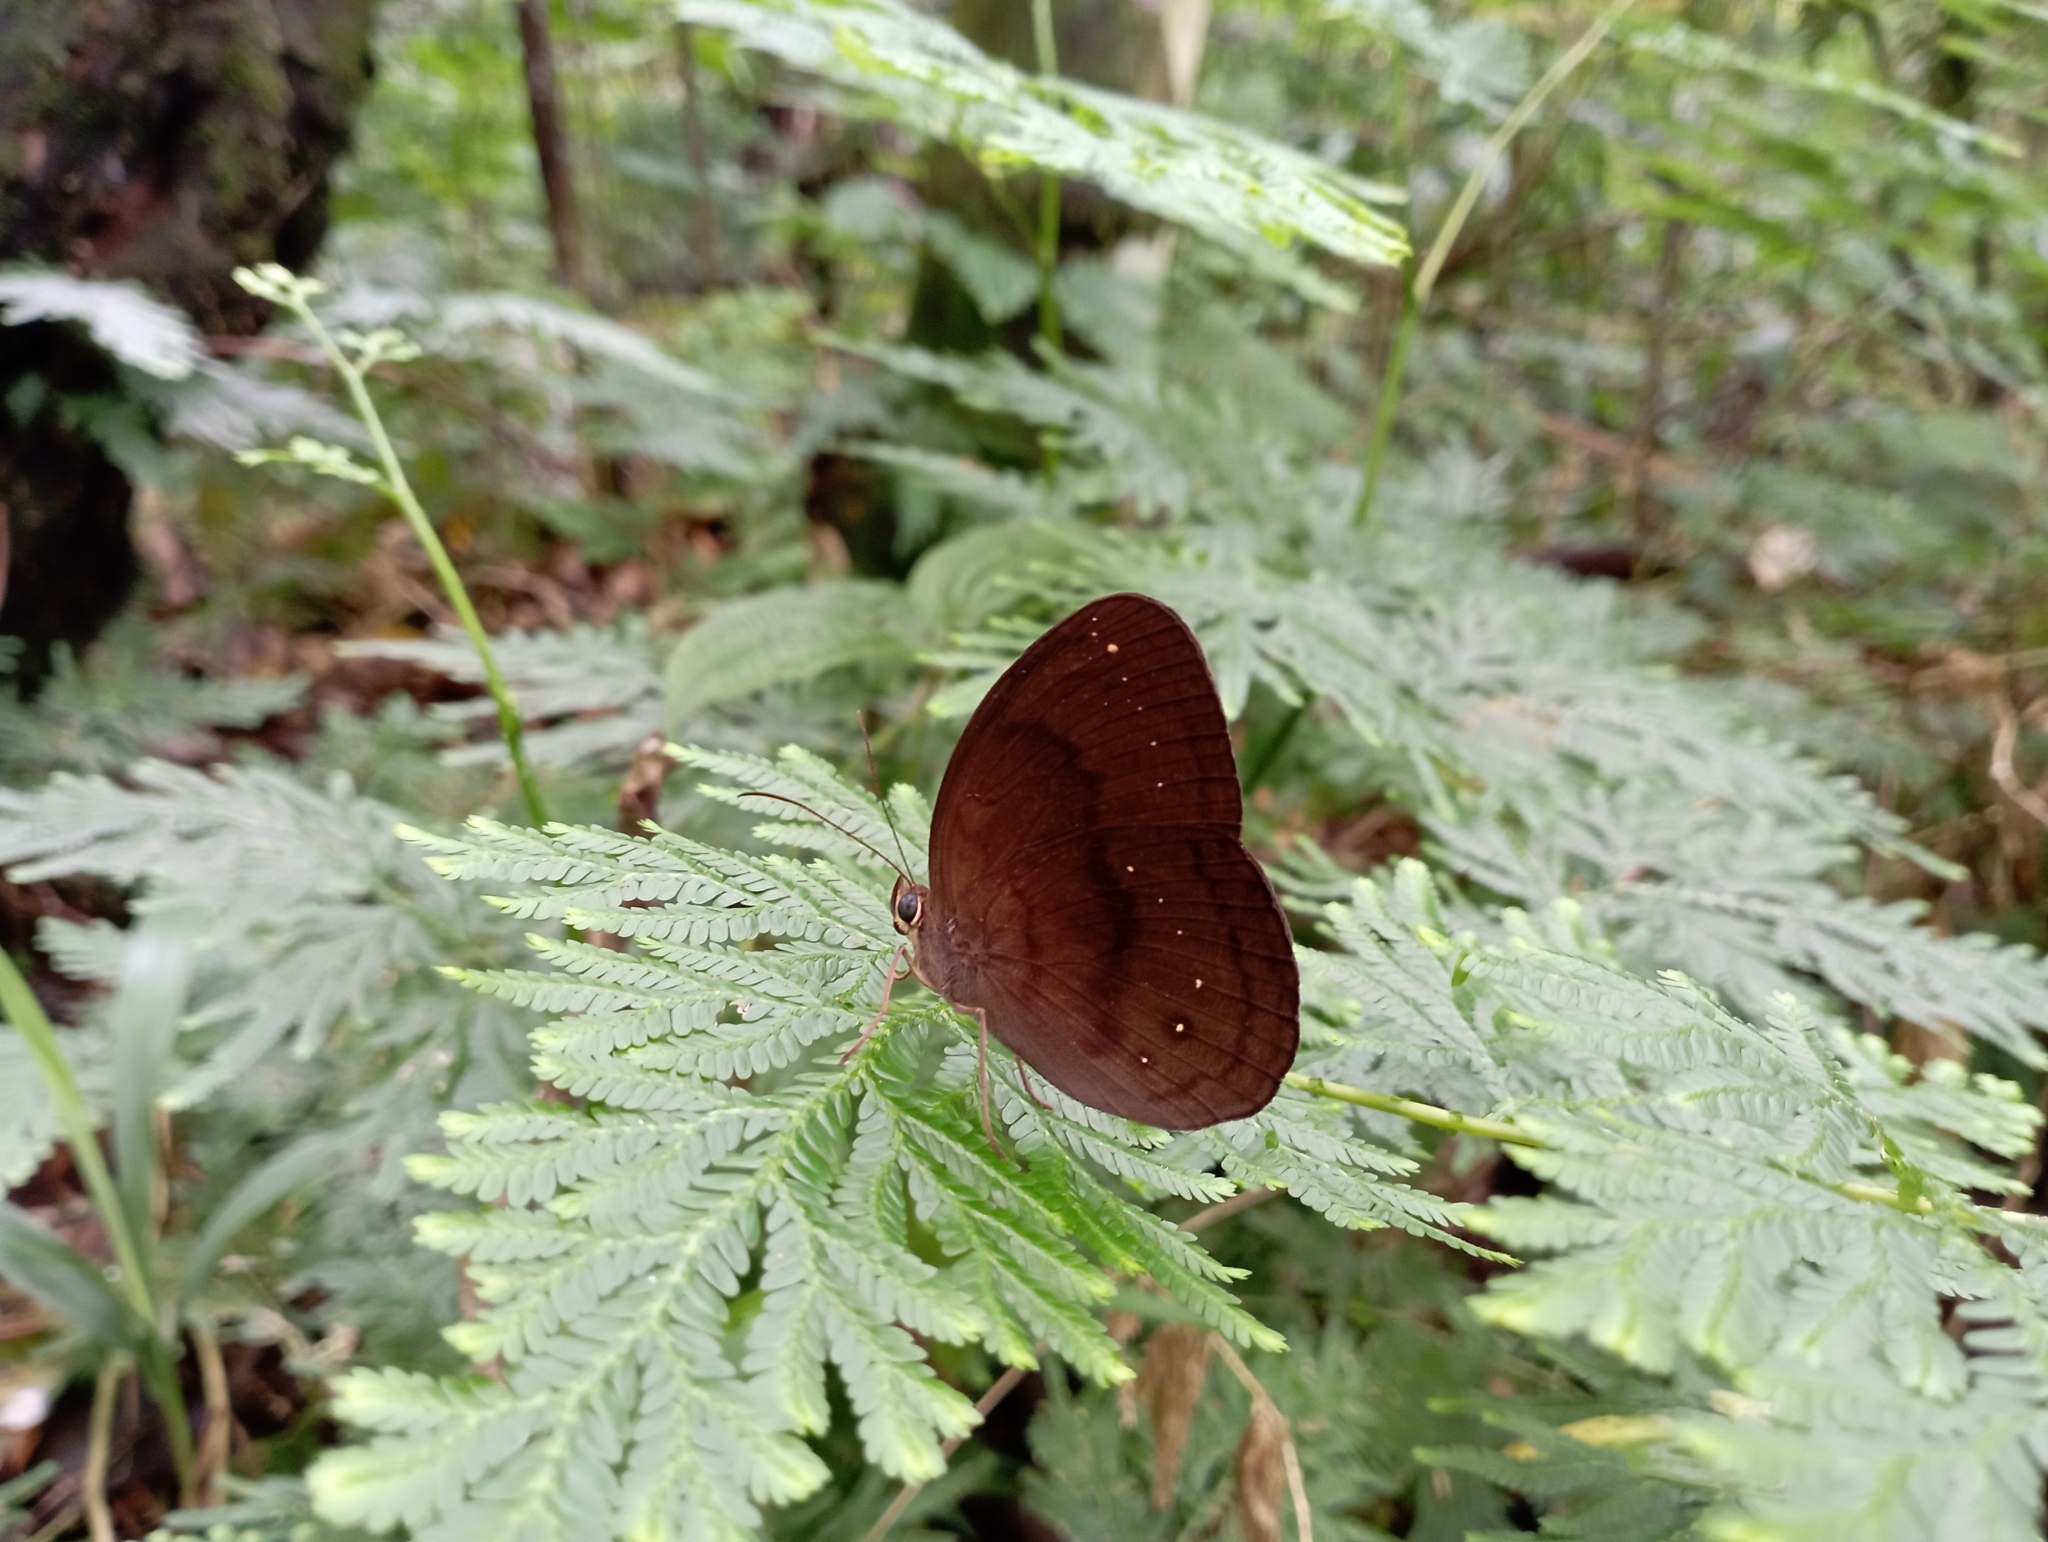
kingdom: Animalia
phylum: Arthropoda
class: Insecta
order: Lepidoptera
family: Nymphalidae
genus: Faunis
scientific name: Faunis canens
